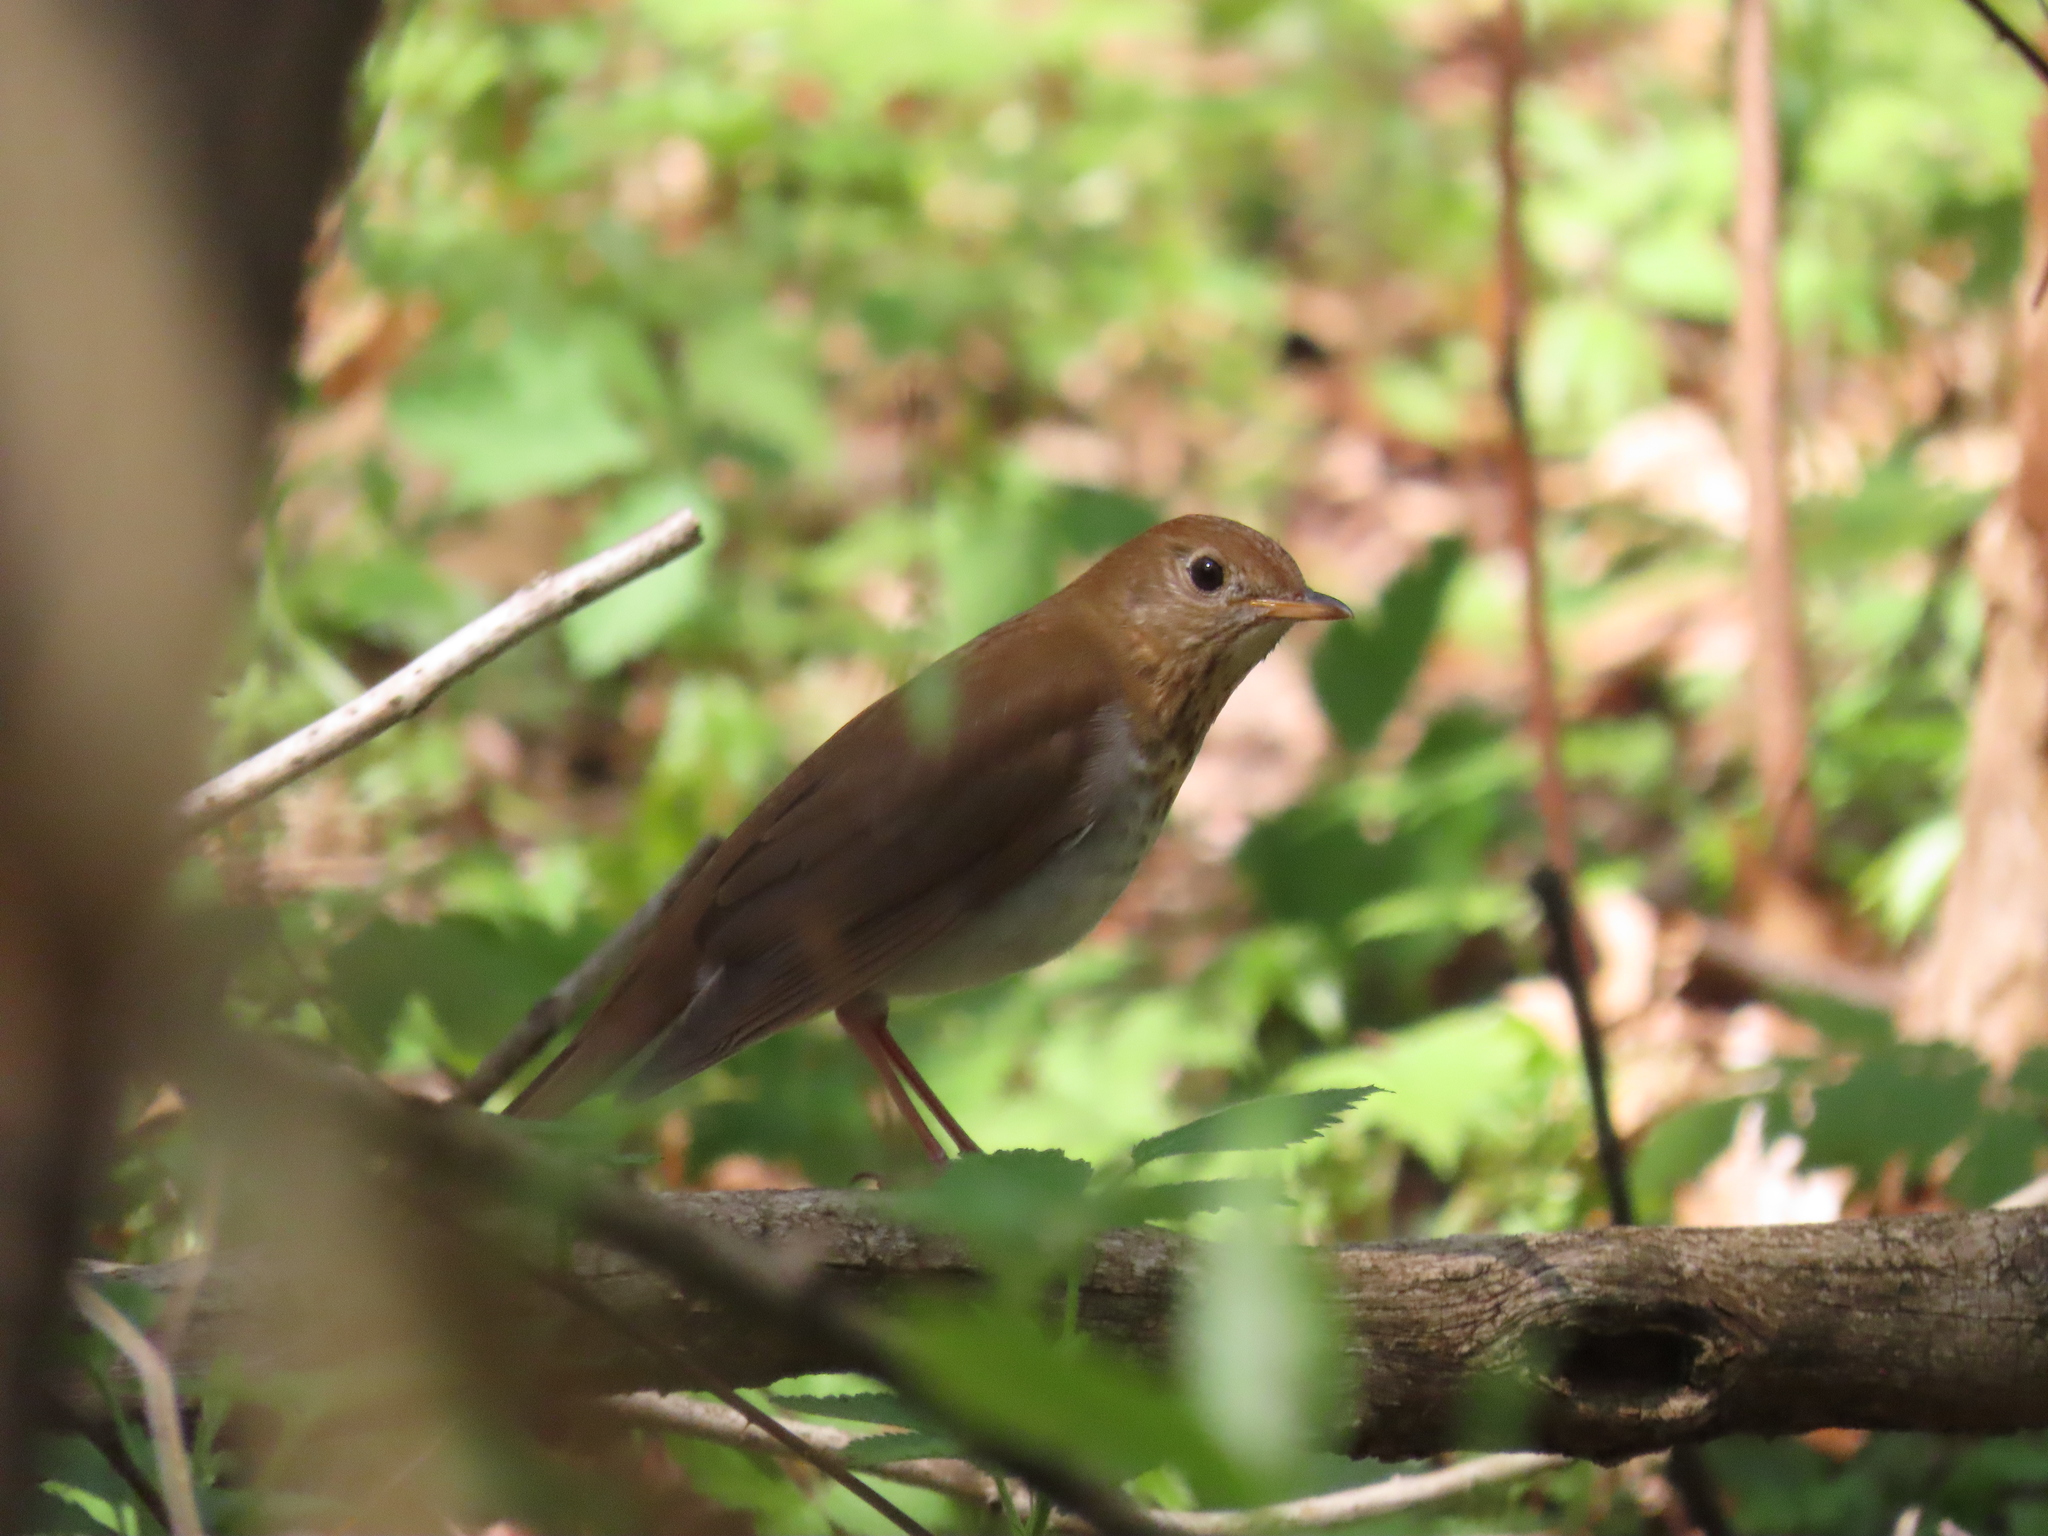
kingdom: Animalia
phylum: Chordata
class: Aves
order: Passeriformes
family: Turdidae
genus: Catharus
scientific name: Catharus fuscescens
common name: Veery
